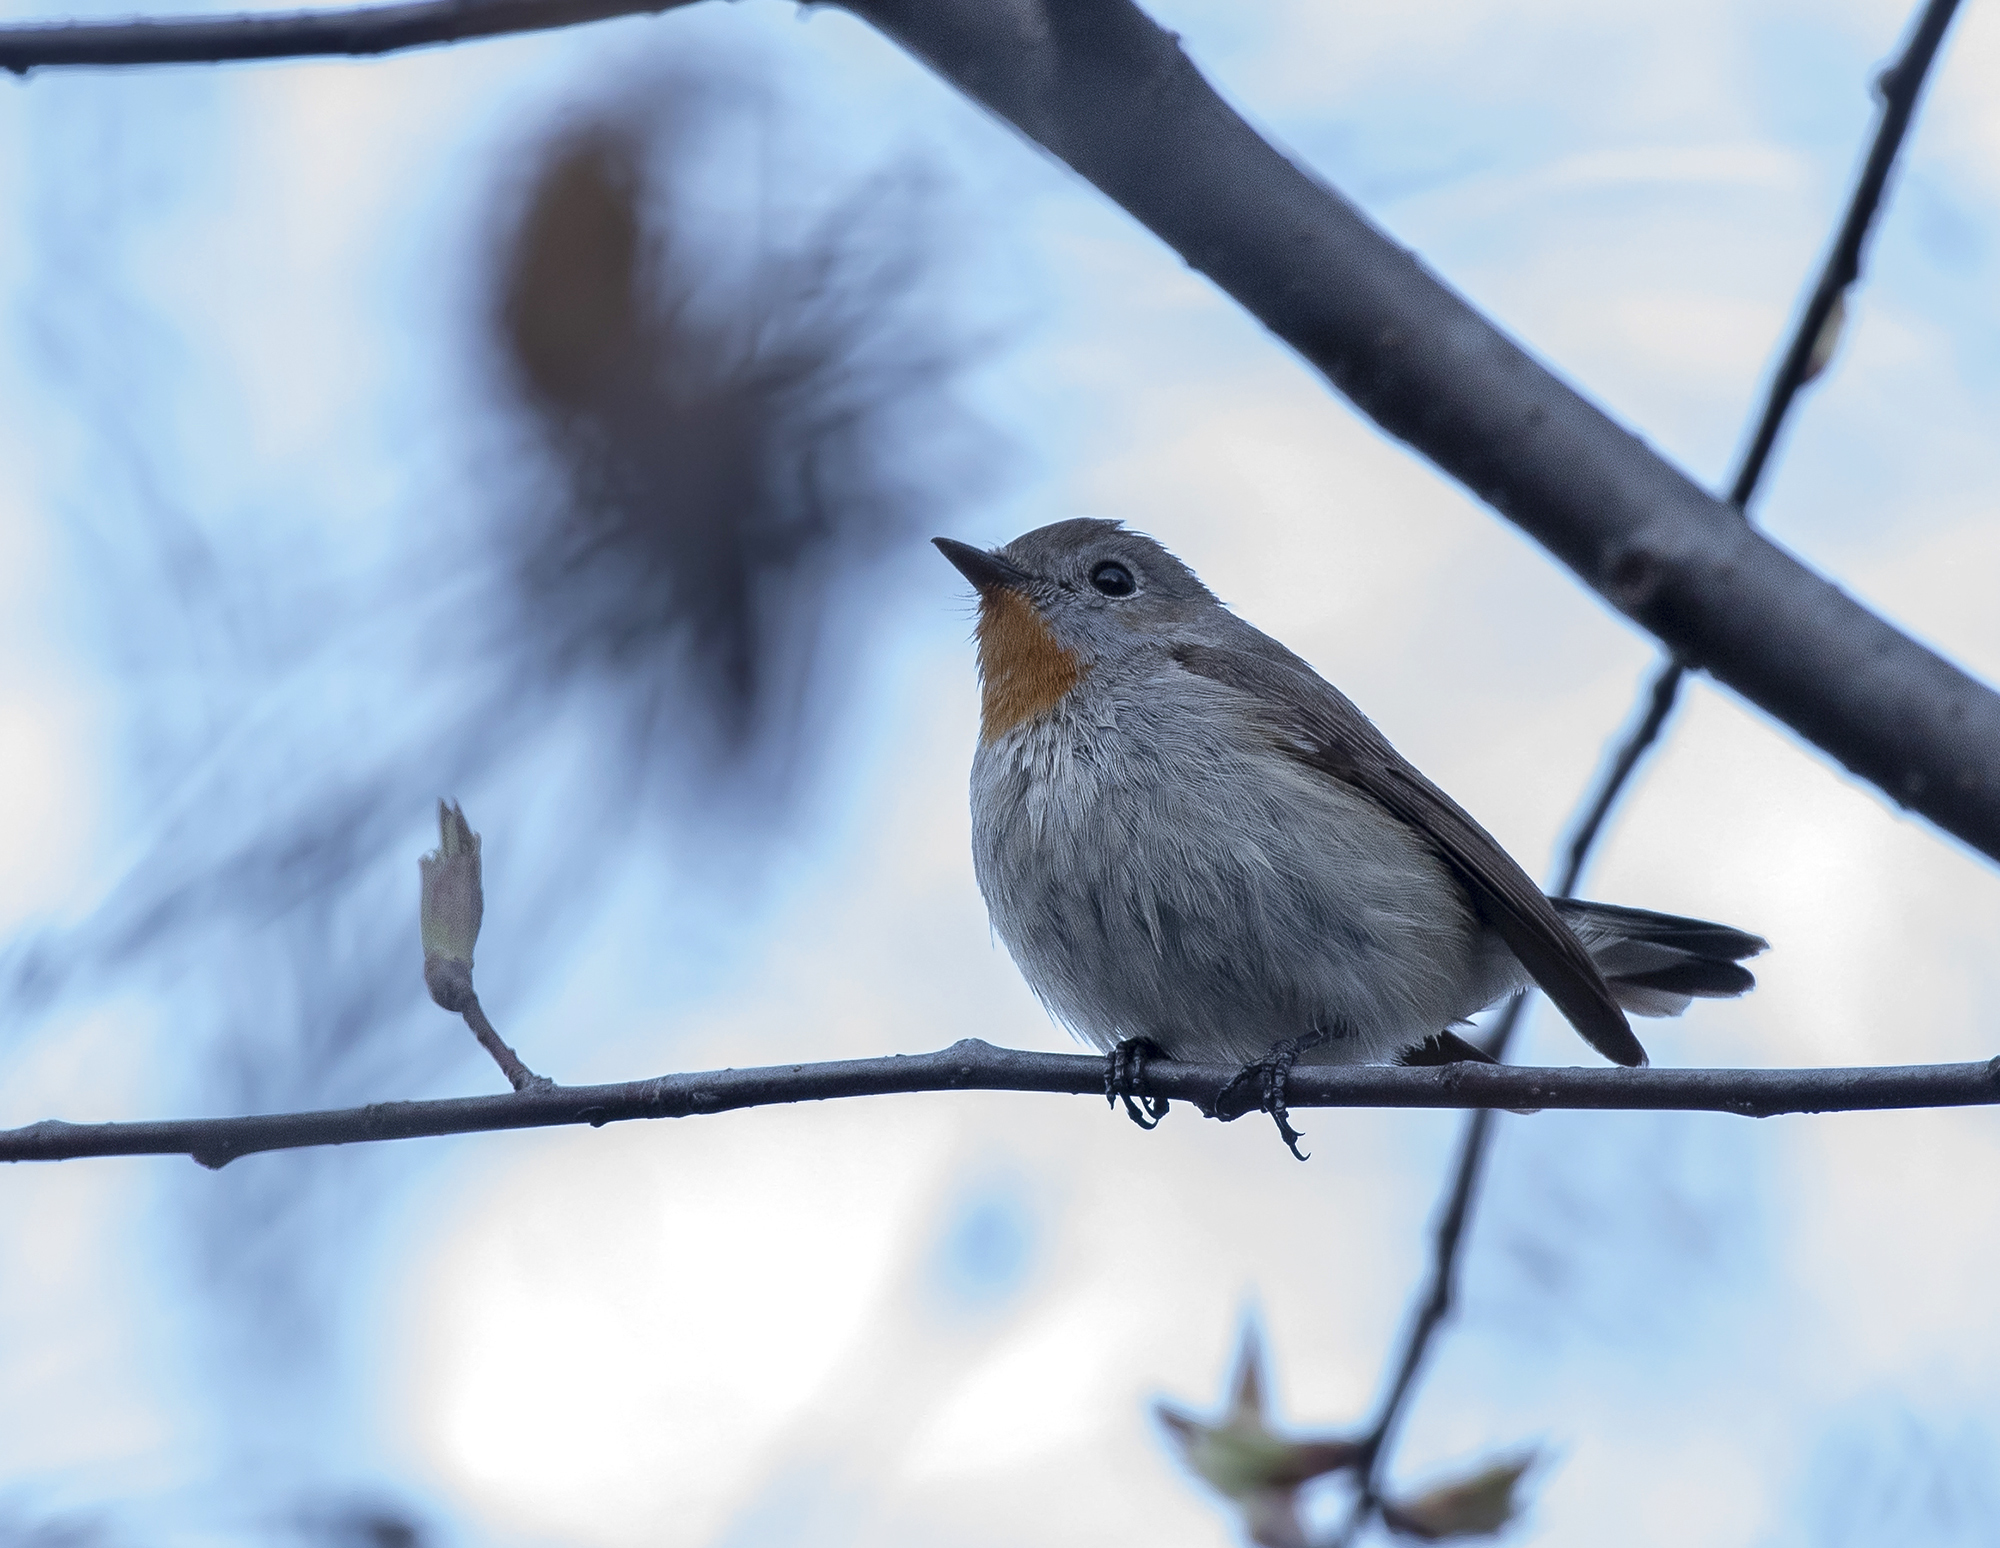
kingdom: Animalia
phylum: Chordata
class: Aves
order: Passeriformes
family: Muscicapidae
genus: Ficedula
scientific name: Ficedula albicilla
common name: Taiga flycatcher
